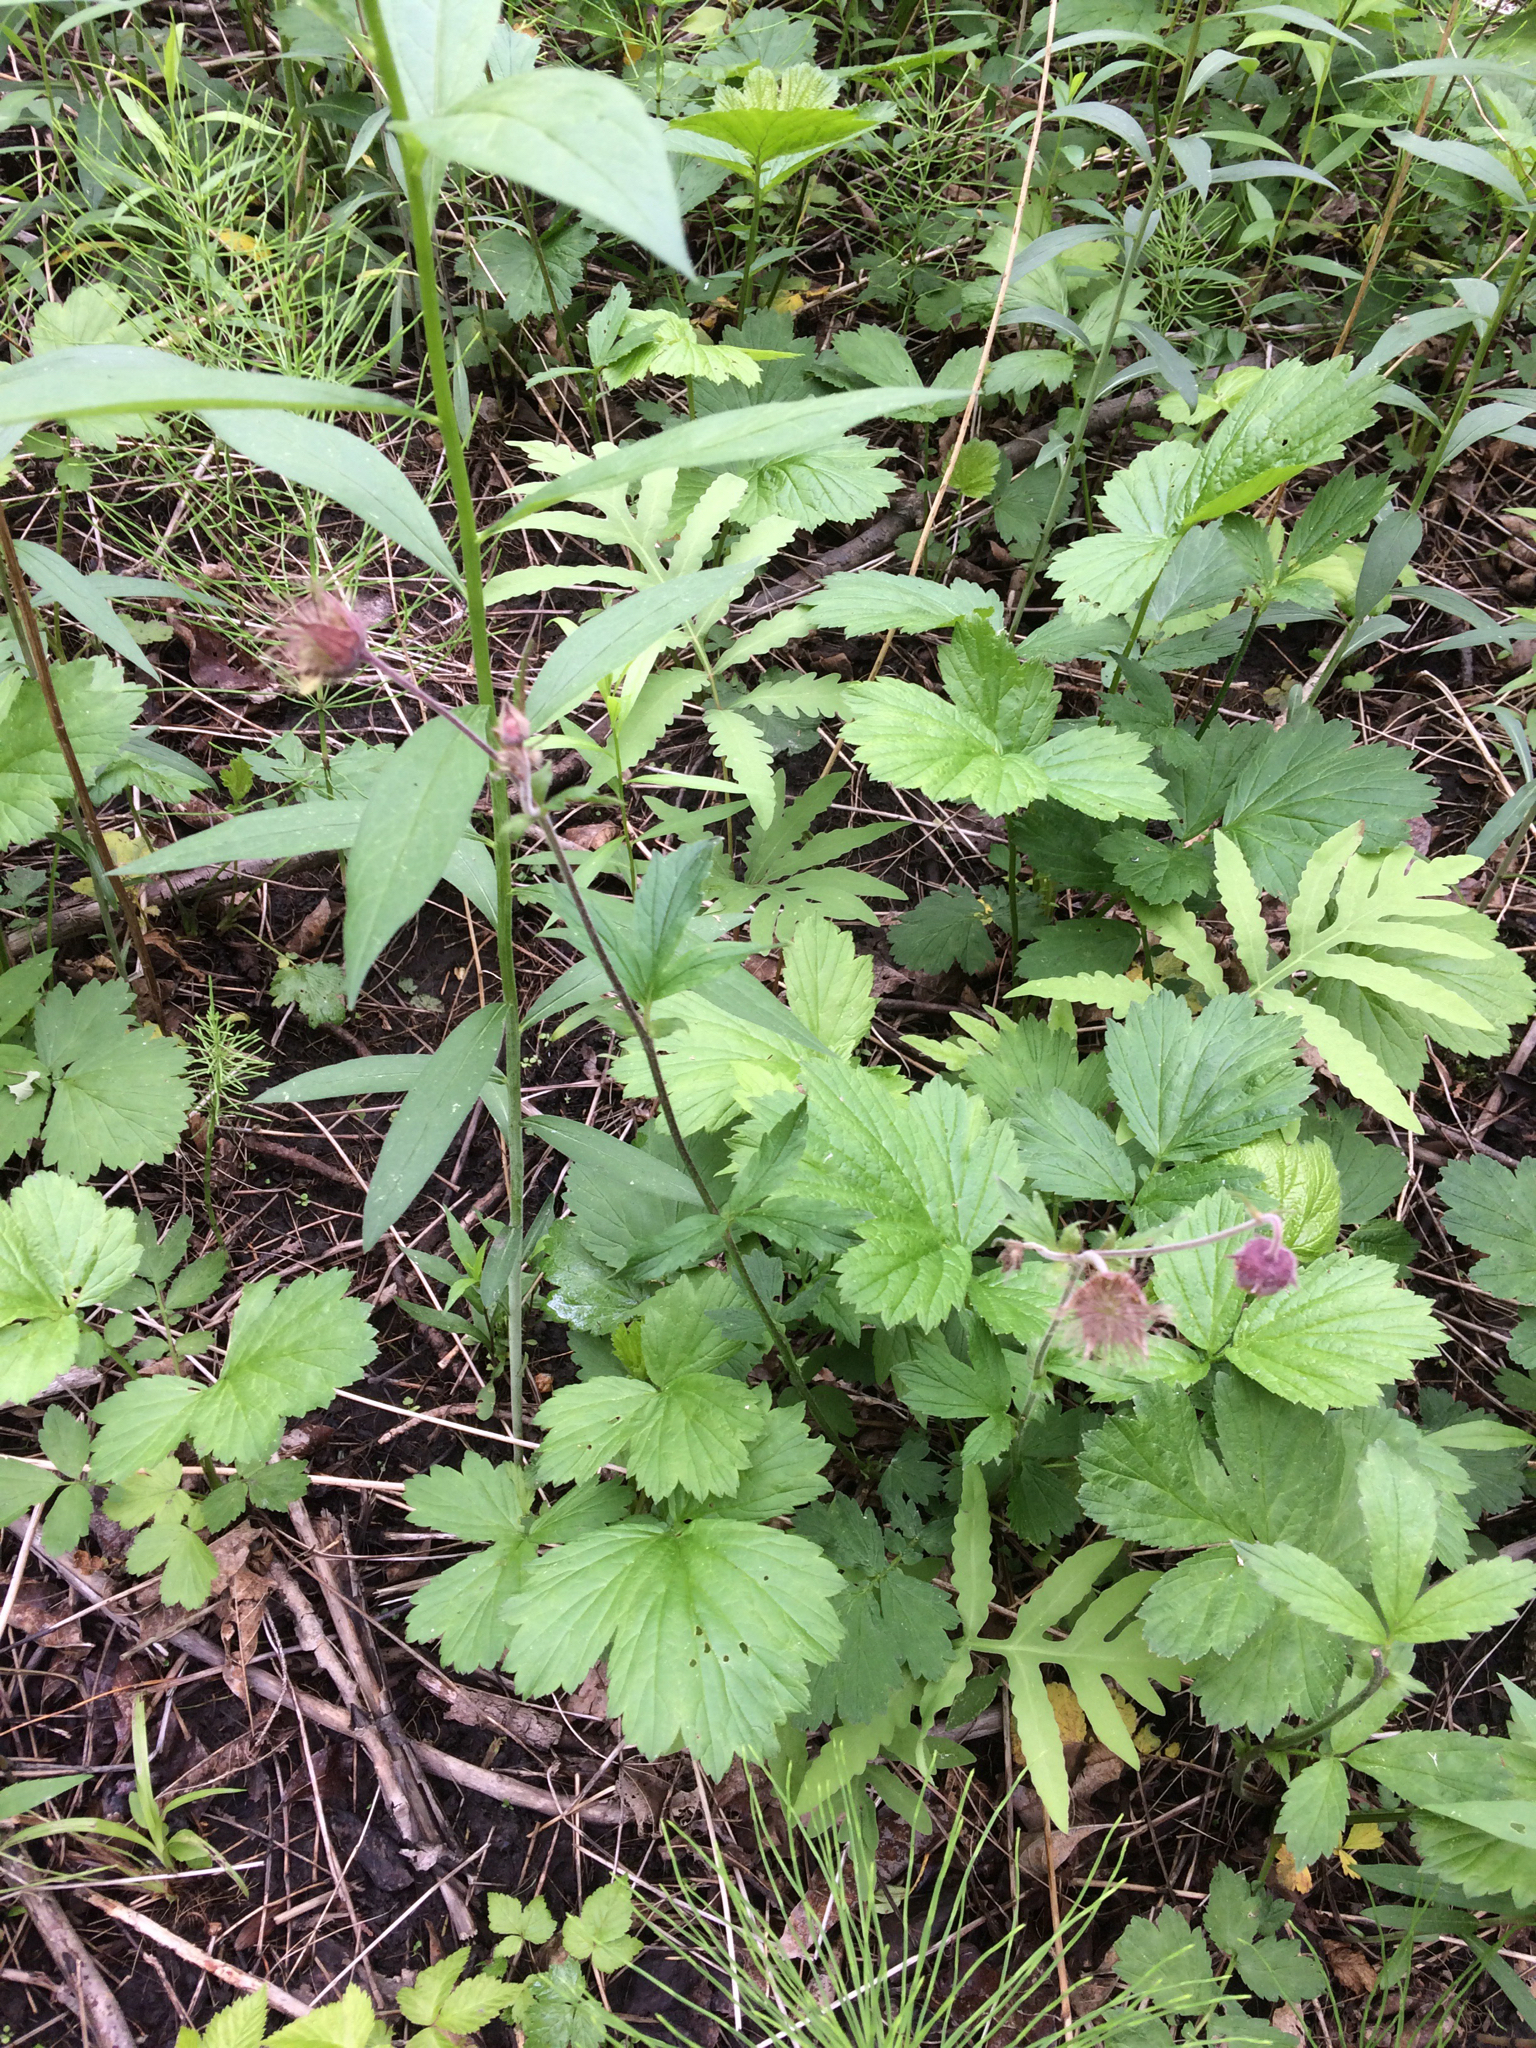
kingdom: Plantae
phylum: Tracheophyta
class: Magnoliopsida
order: Rosales
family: Rosaceae
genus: Geum
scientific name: Geum rivale
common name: Water avens
